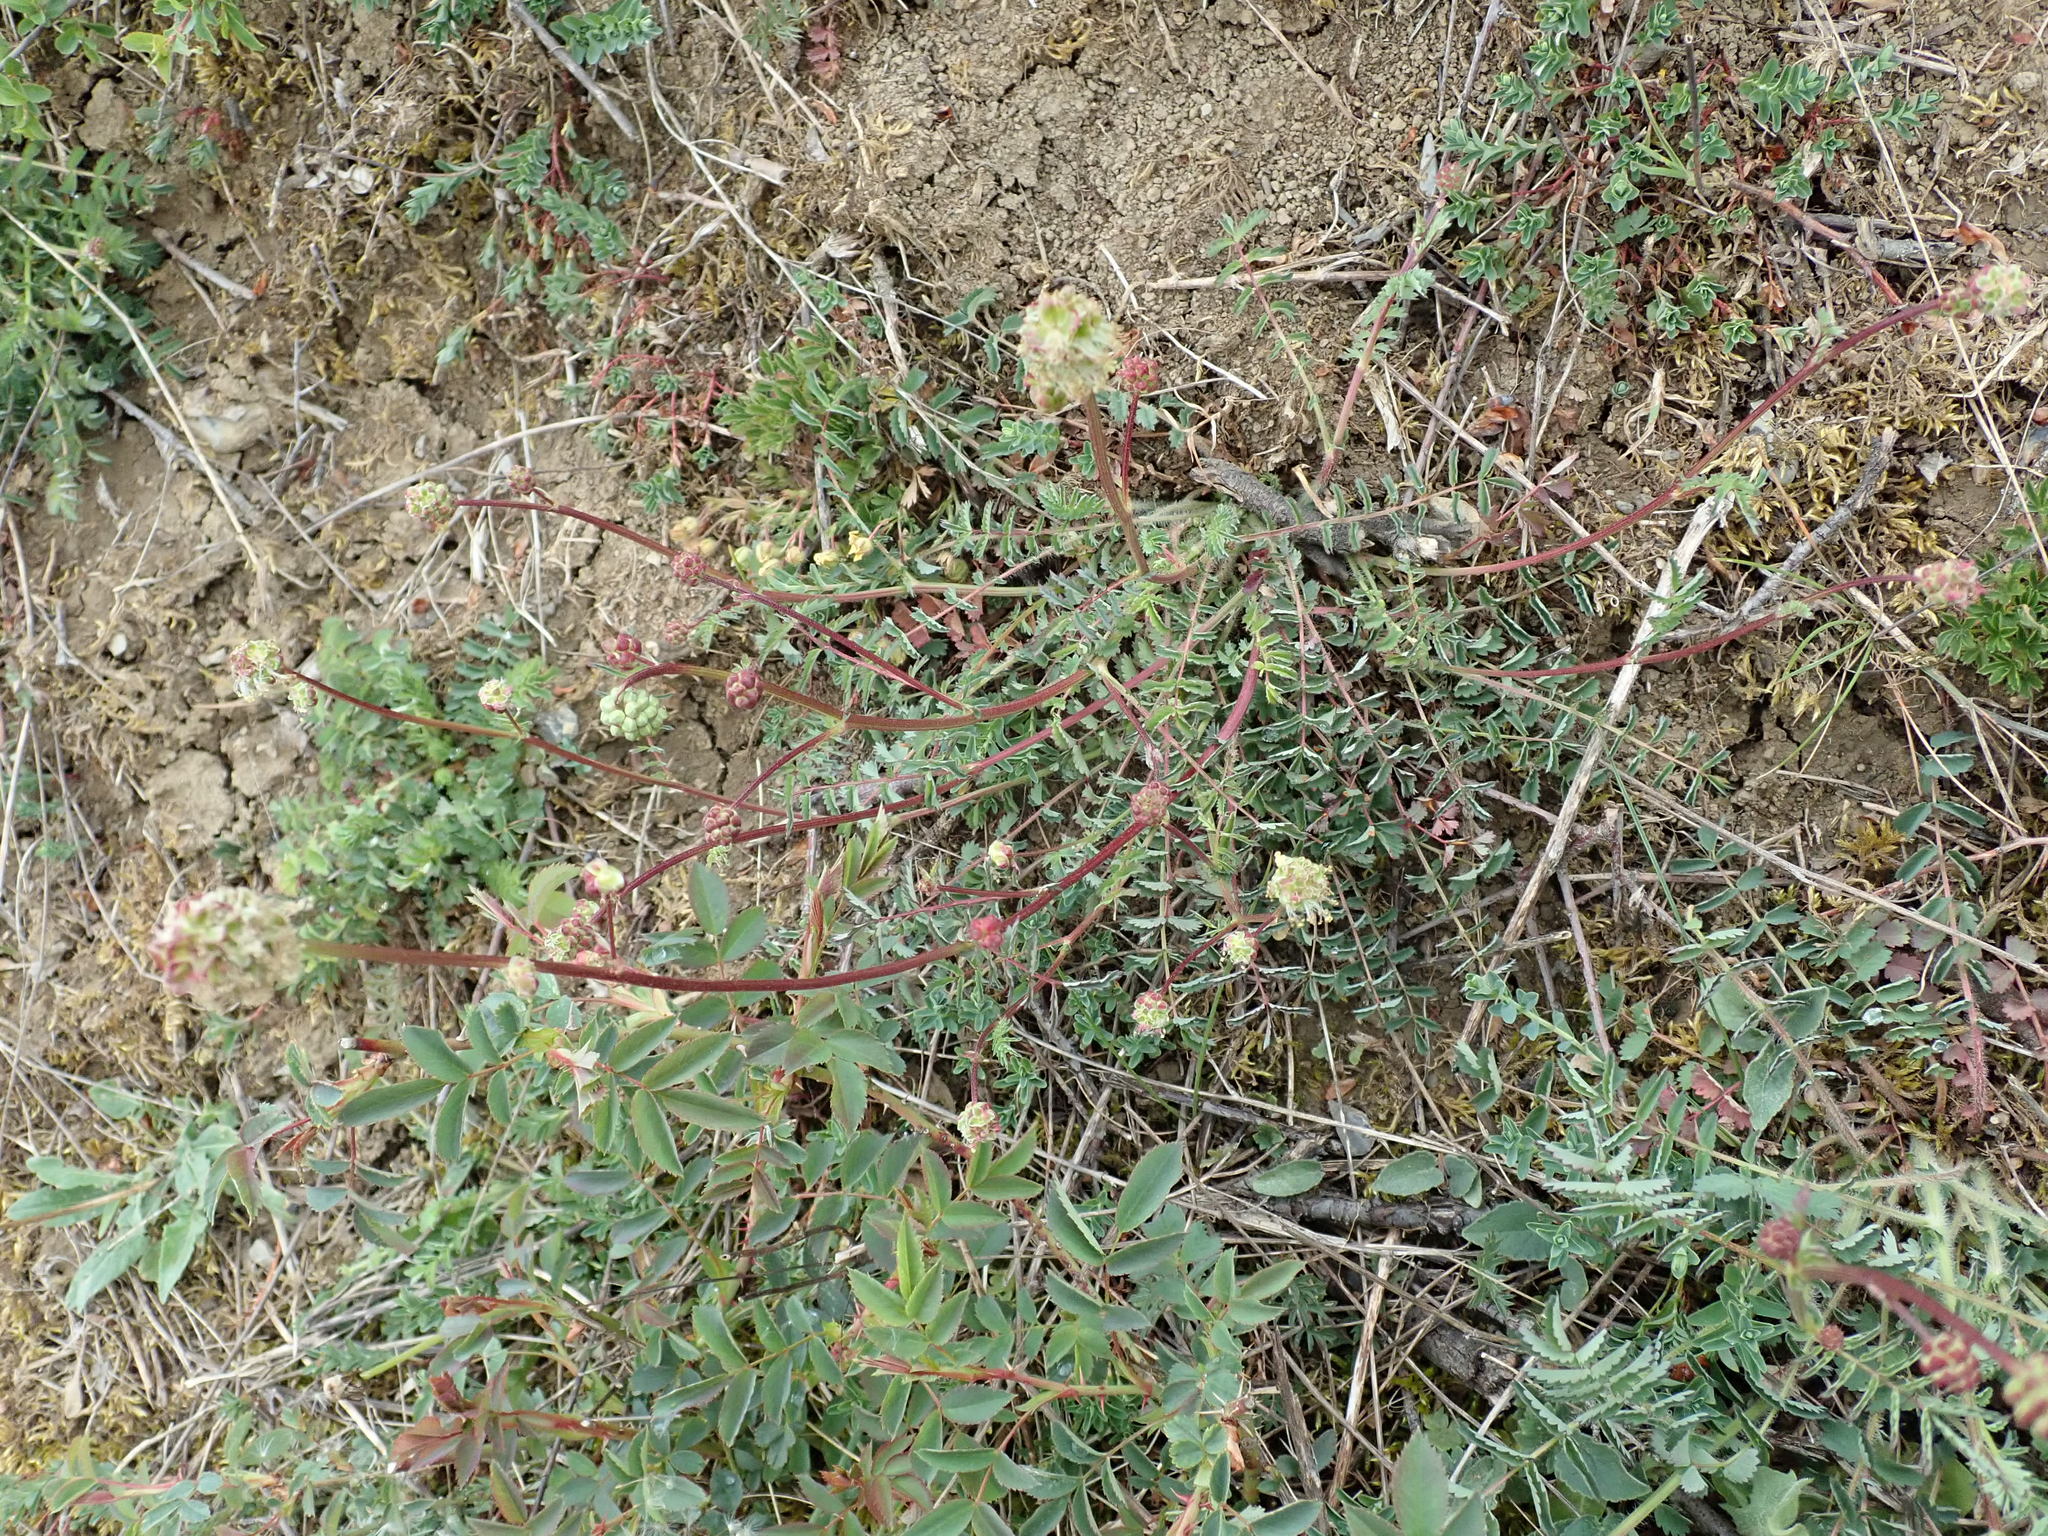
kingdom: Plantae
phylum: Tracheophyta
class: Magnoliopsida
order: Rosales
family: Rosaceae
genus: Poterium
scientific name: Poterium sanguisorba
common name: Salad burnet
